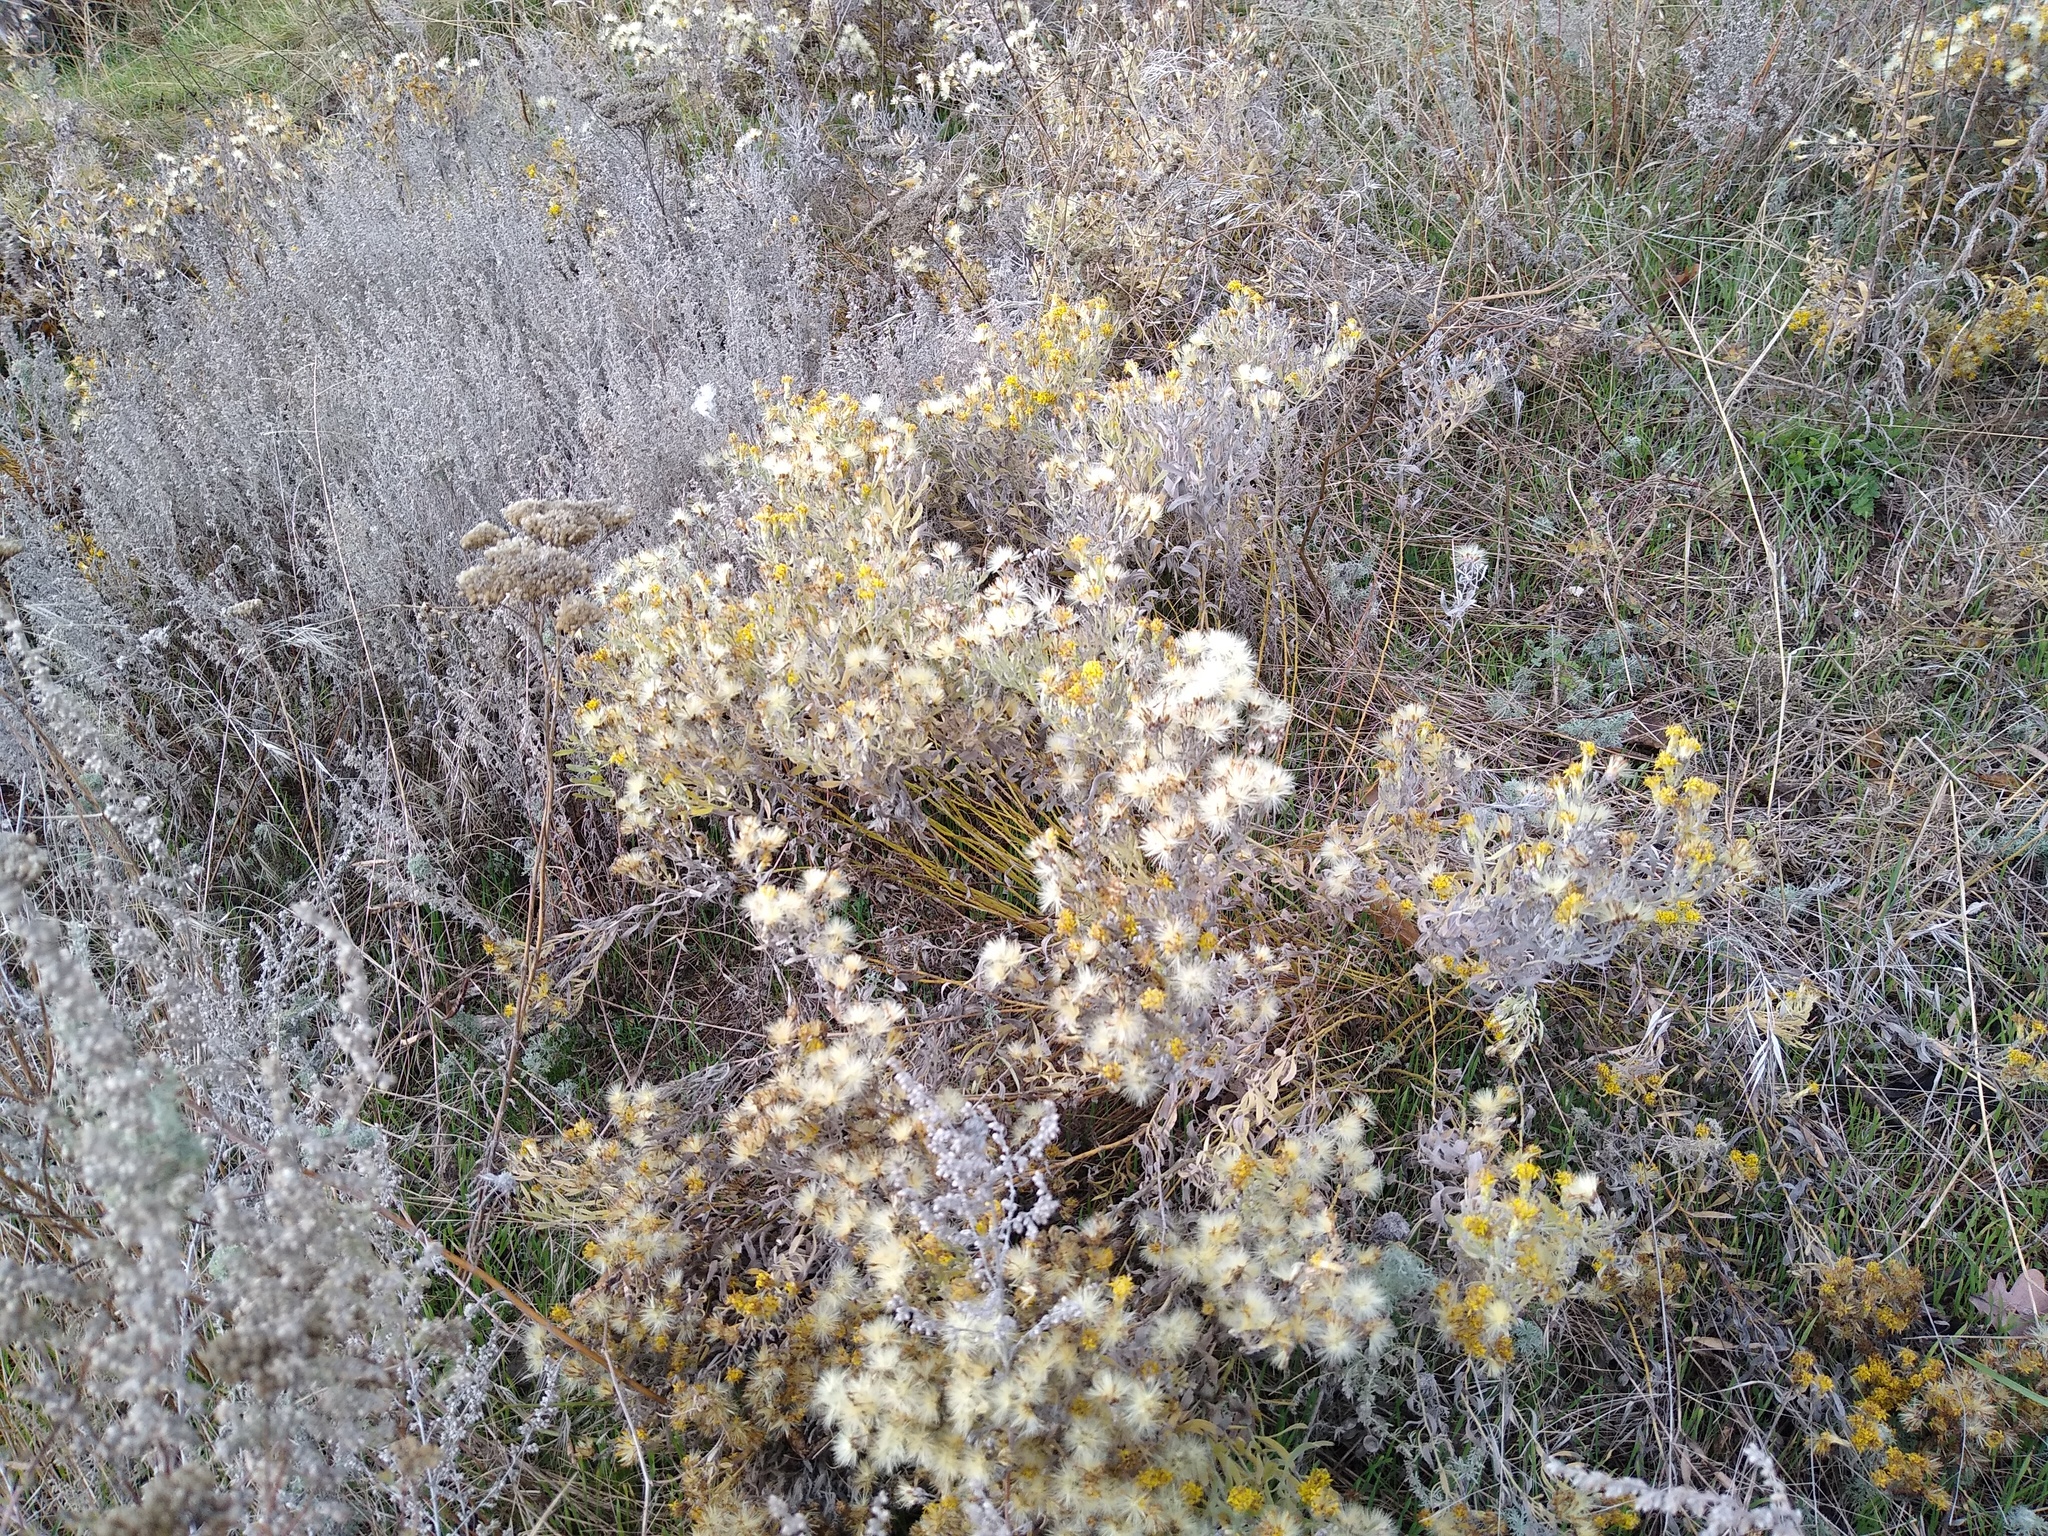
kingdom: Plantae
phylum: Tracheophyta
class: Magnoliopsida
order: Asterales
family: Asteraceae
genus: Galatella
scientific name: Galatella villosa
